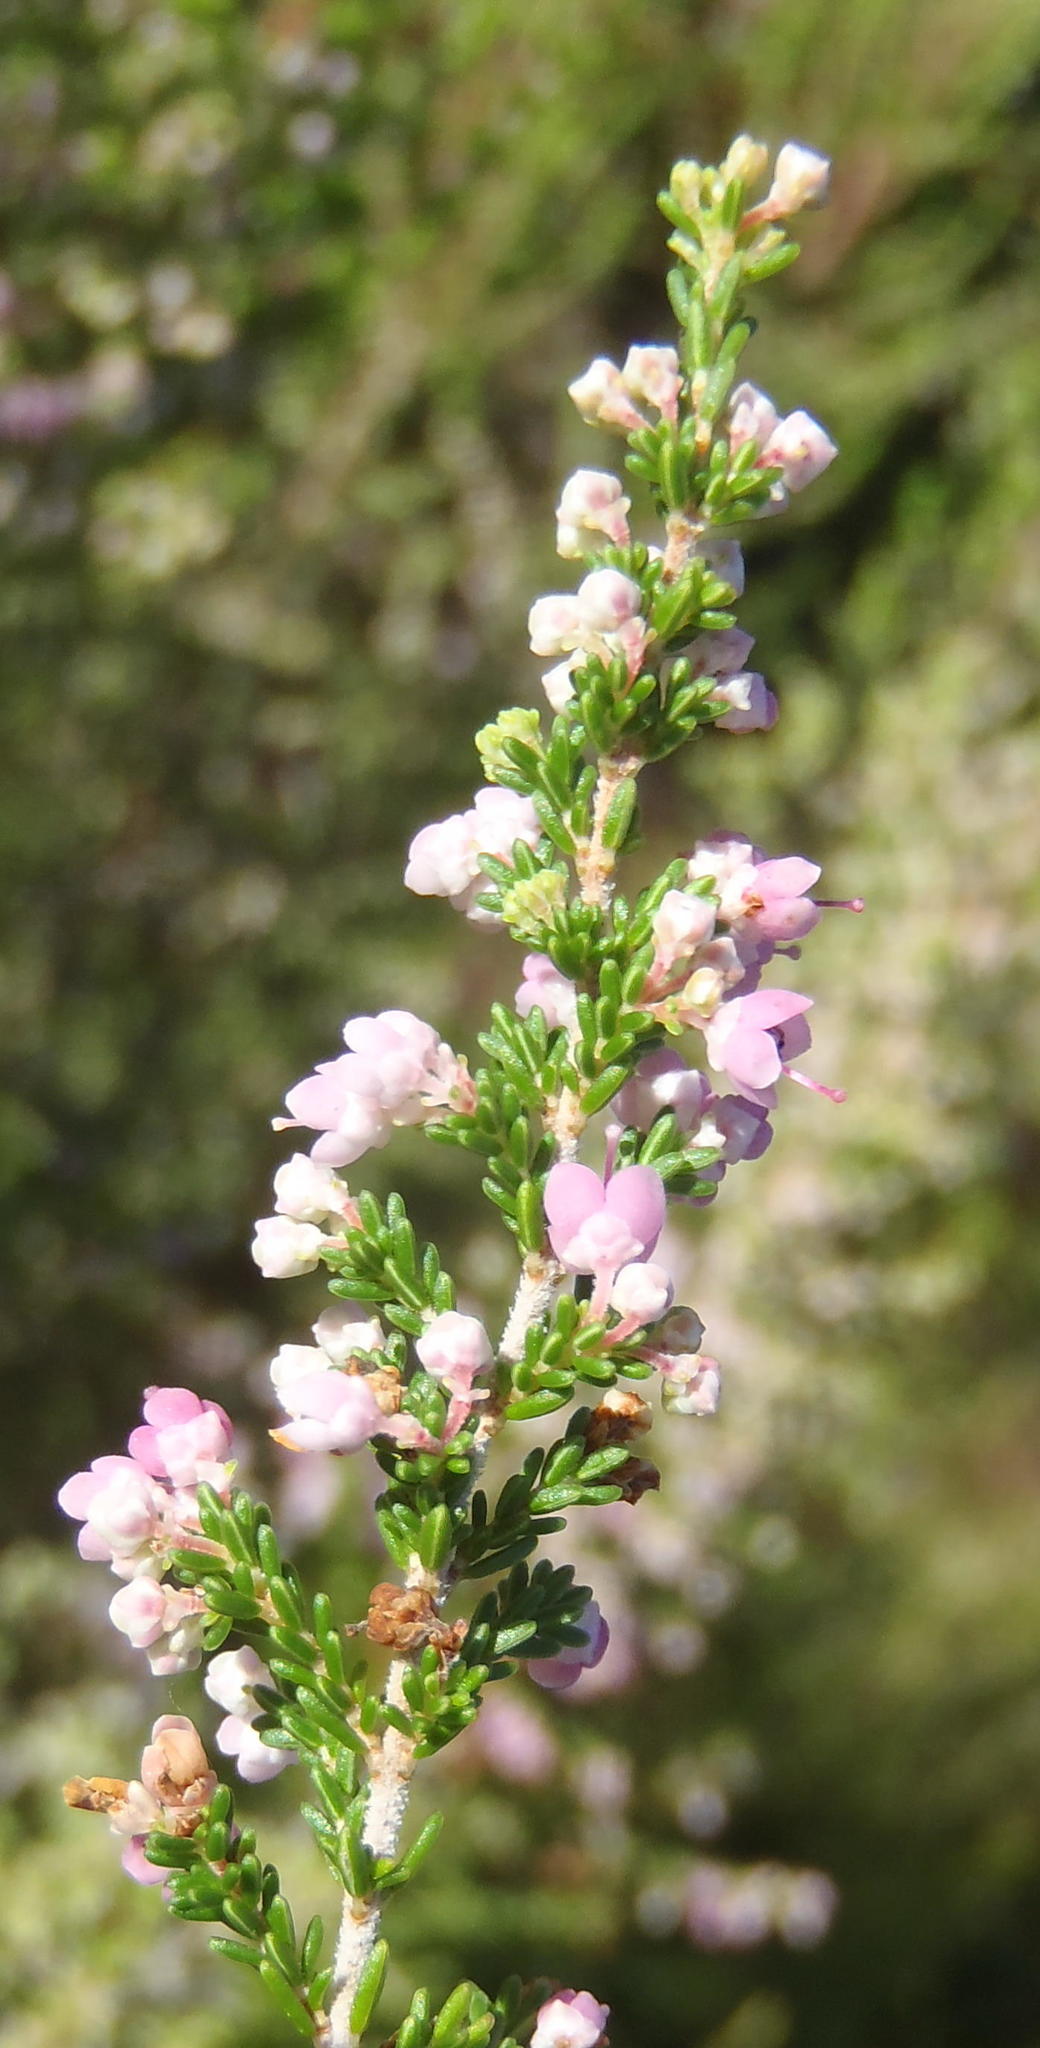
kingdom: Plantae
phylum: Tracheophyta
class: Magnoliopsida
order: Ericales
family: Ericaceae
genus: Erica
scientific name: Erica canaliculata
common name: Hairy grey heather
